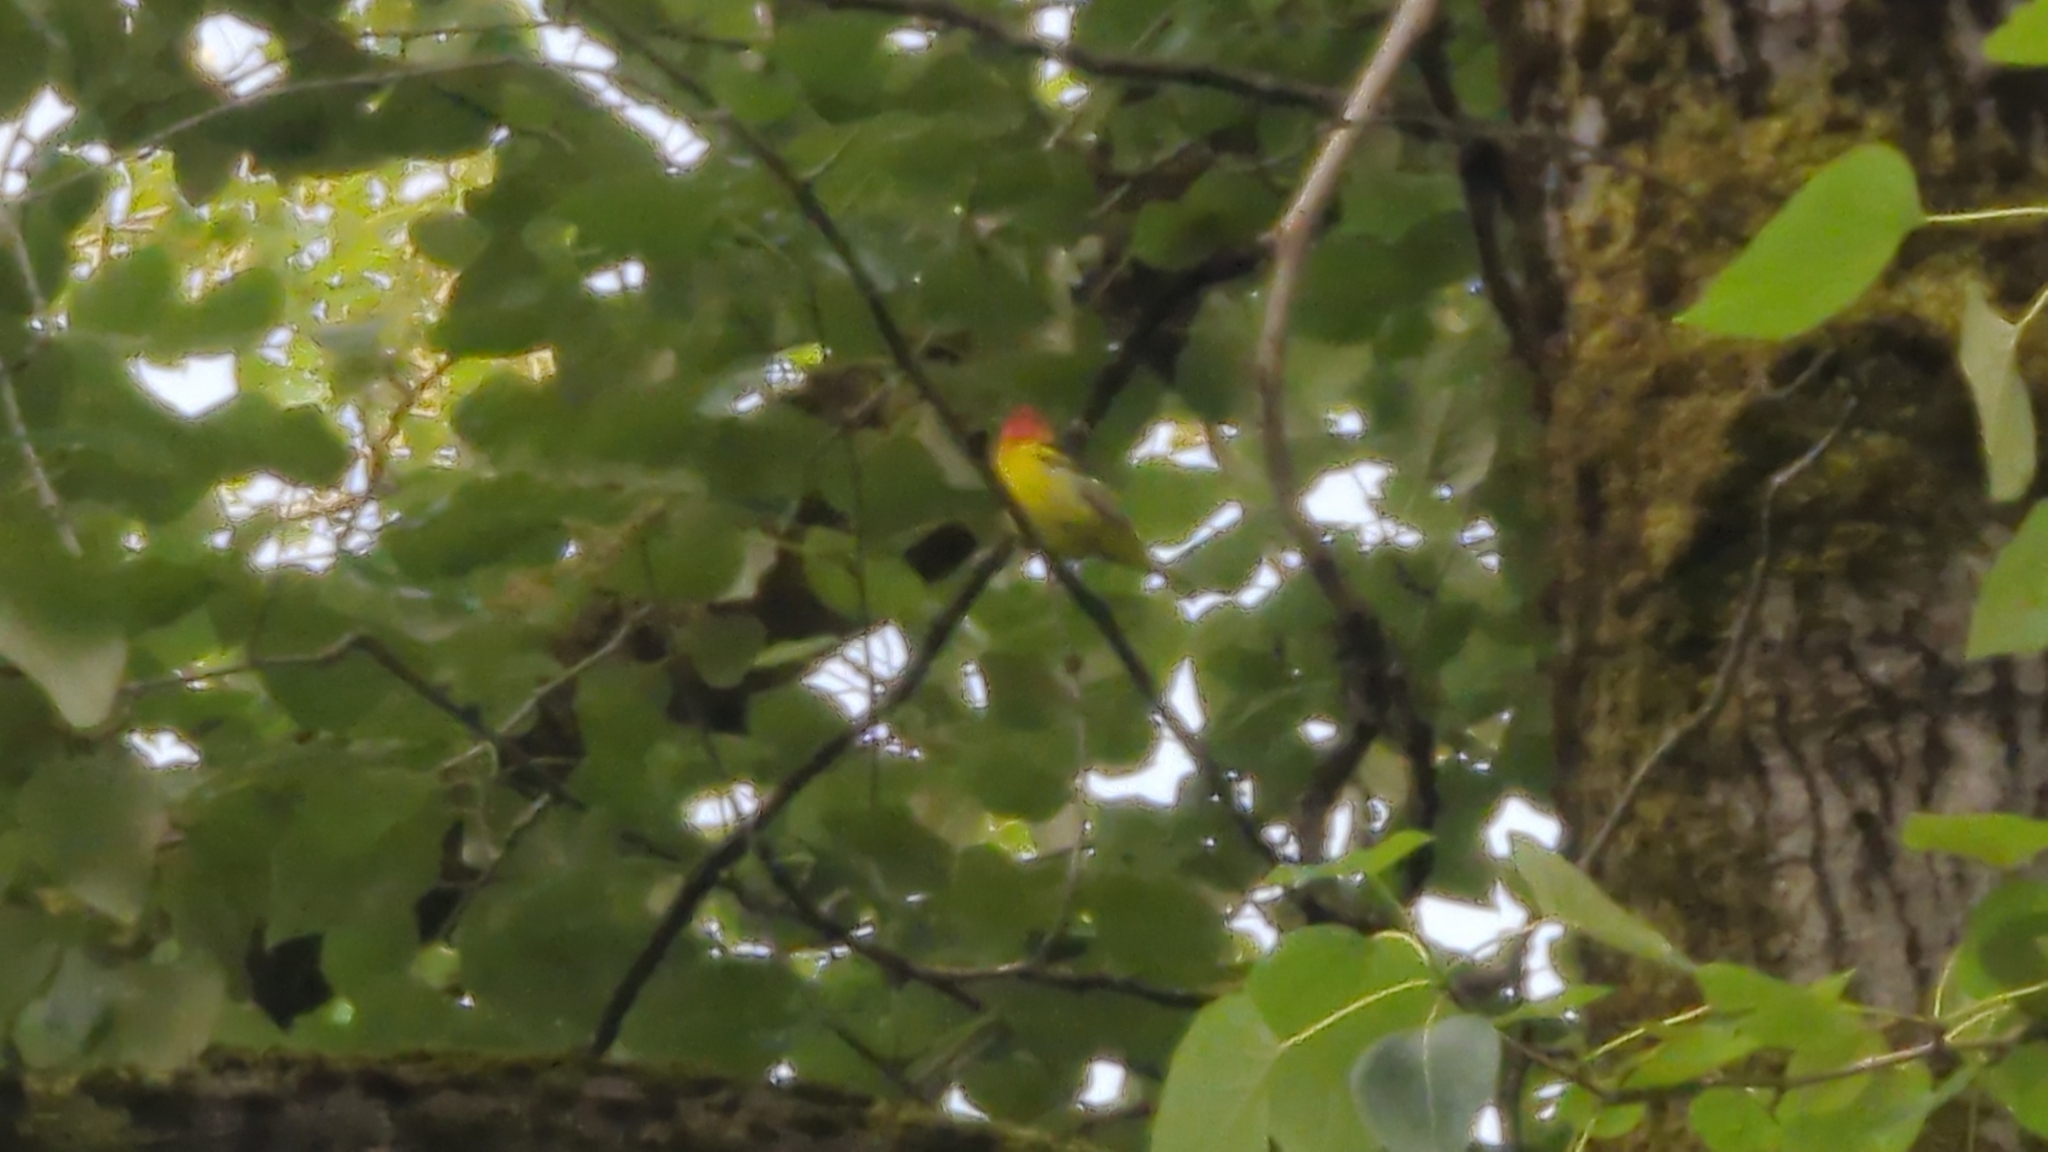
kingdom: Animalia
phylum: Chordata
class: Aves
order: Passeriformes
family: Cardinalidae
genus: Piranga
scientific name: Piranga ludoviciana
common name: Western tanager
